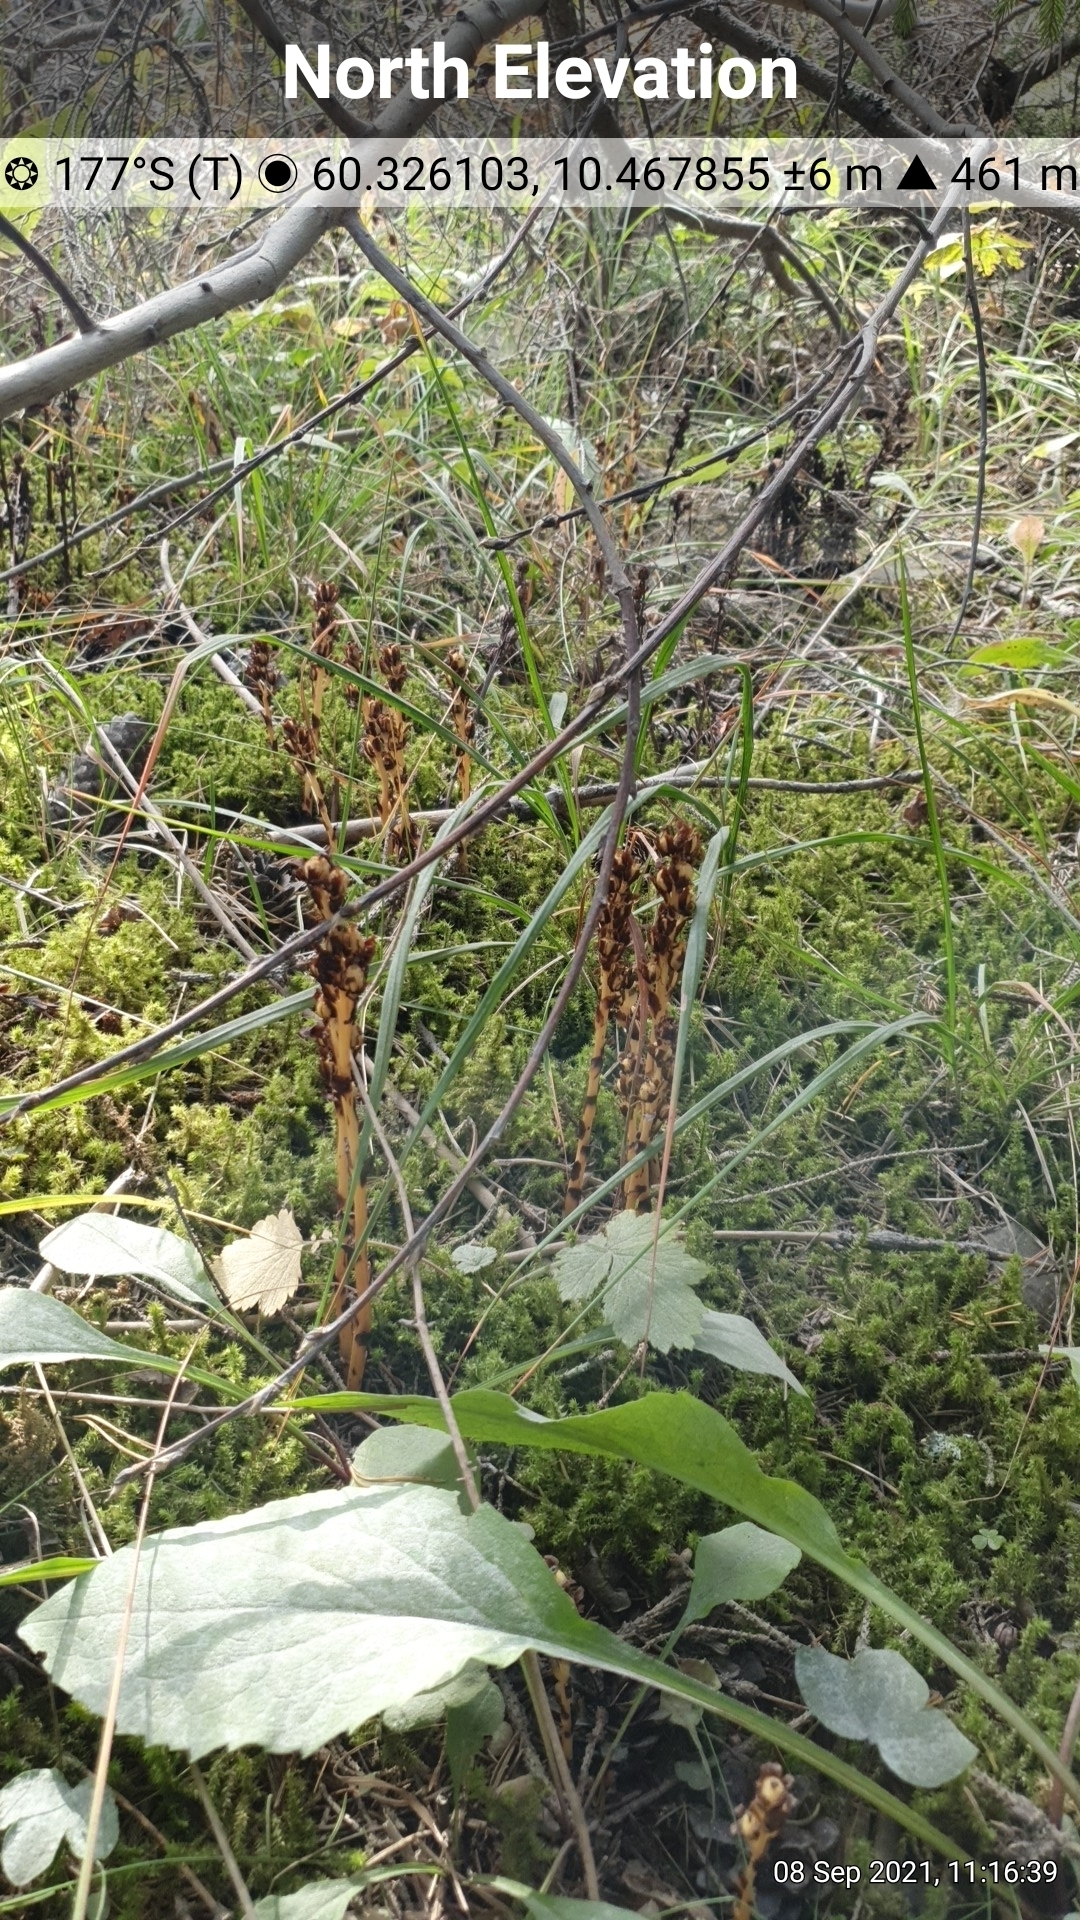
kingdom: Plantae
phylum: Tracheophyta
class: Magnoliopsida
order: Ericales
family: Ericaceae
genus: Hypopitys
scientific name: Hypopitys hypophegea
